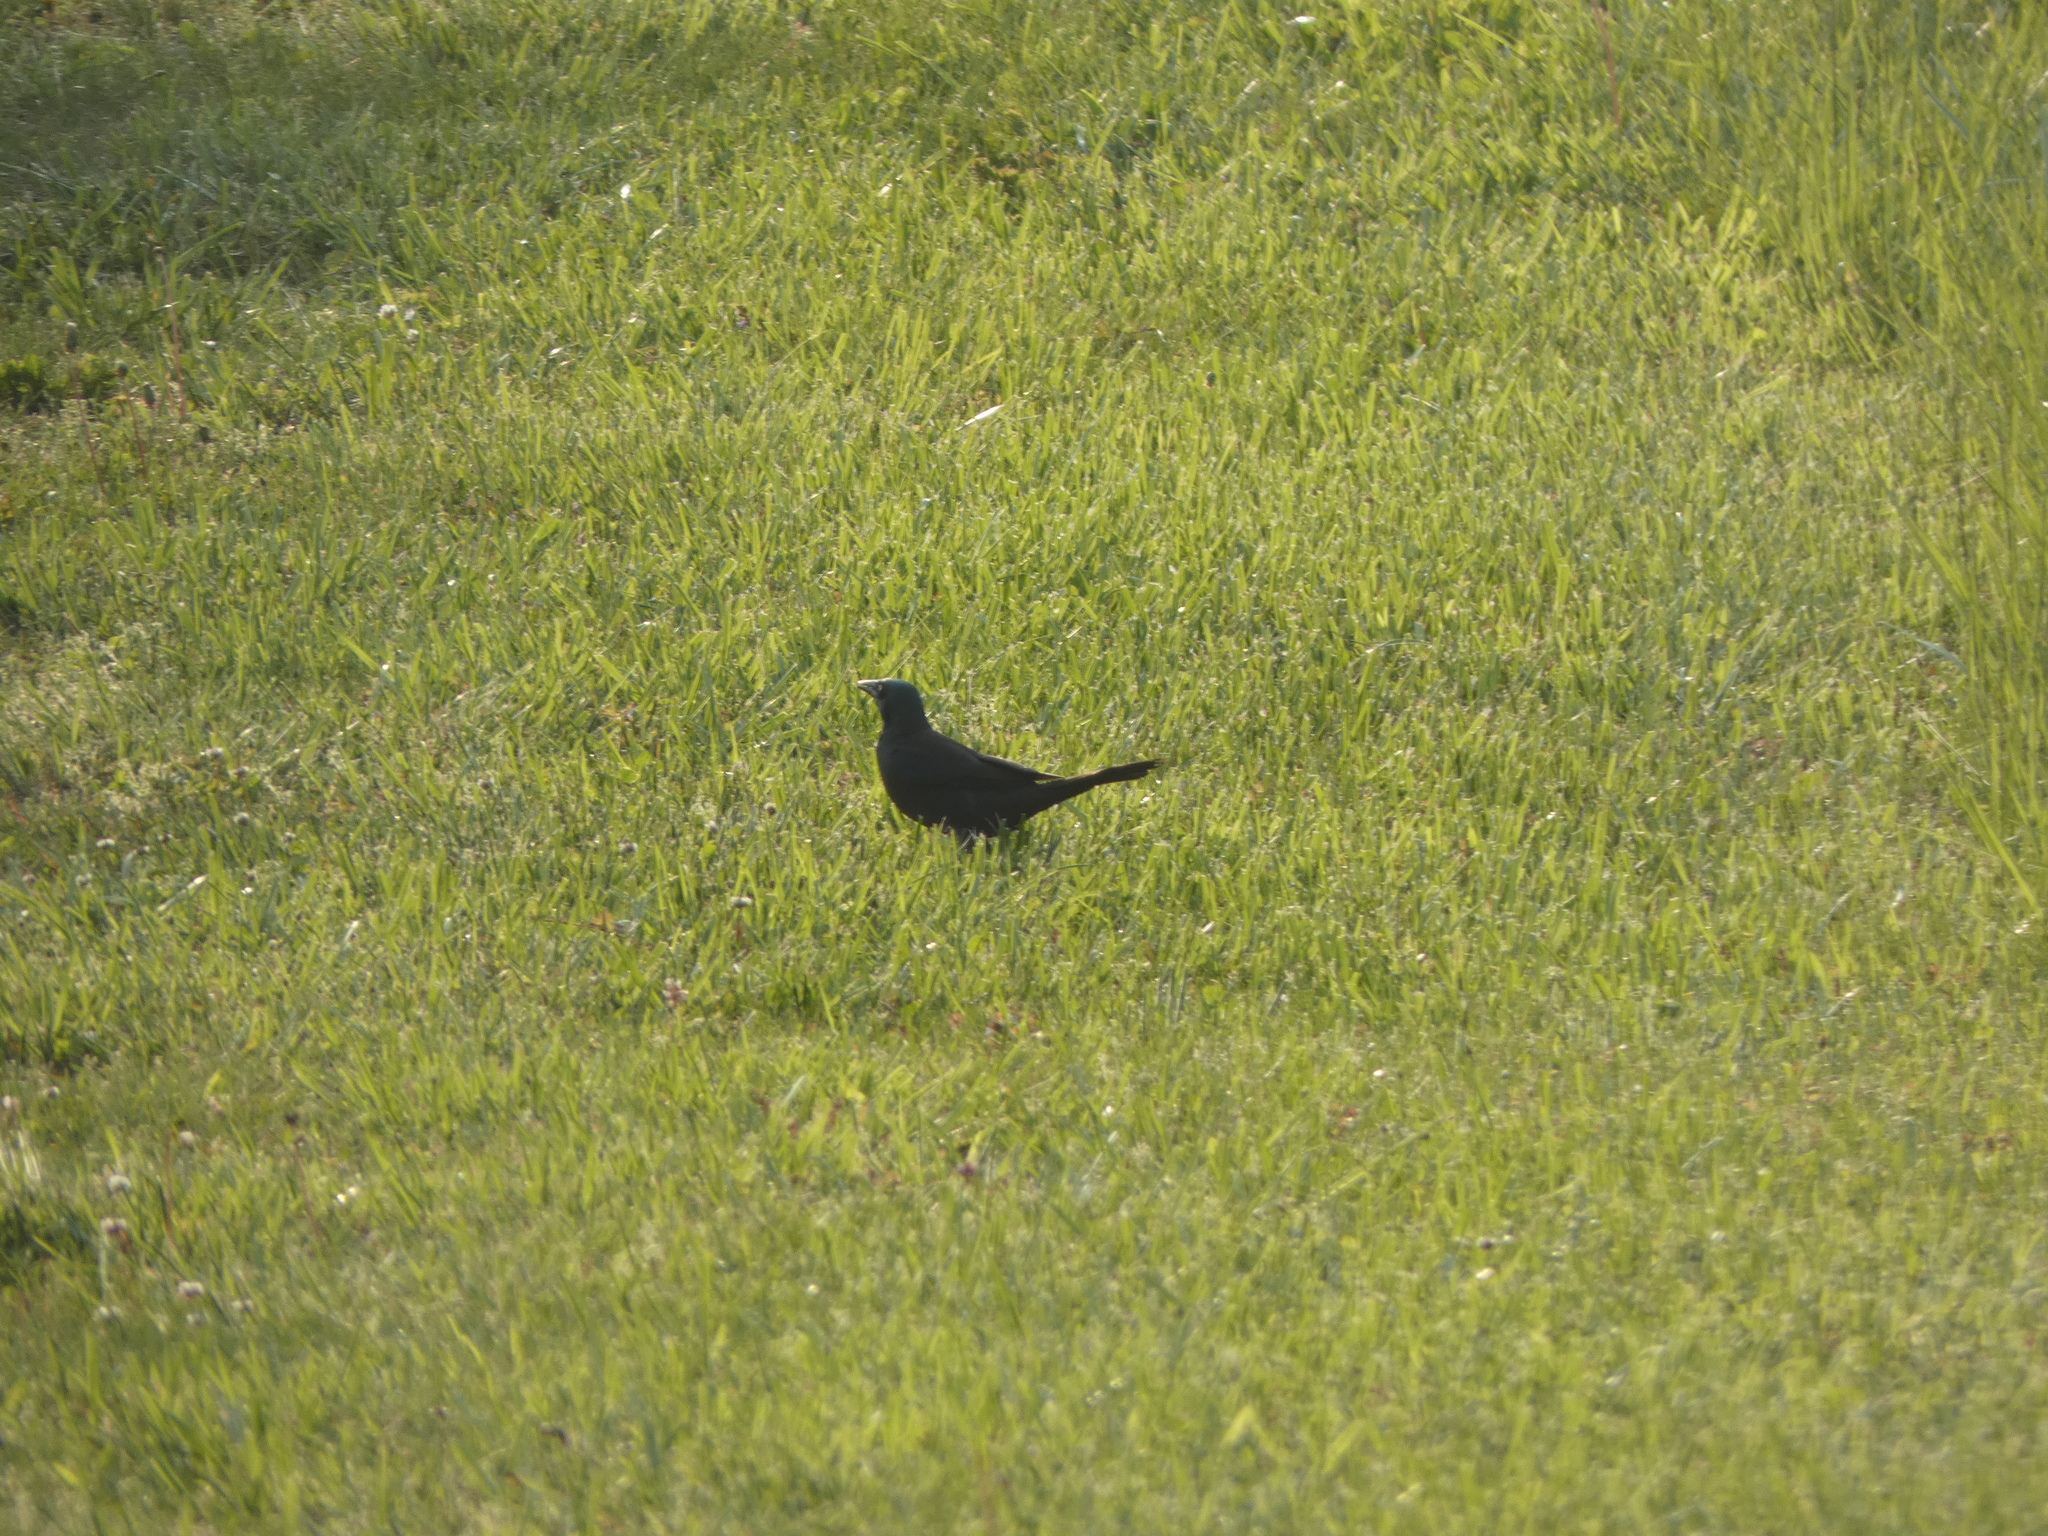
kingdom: Animalia
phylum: Chordata
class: Aves
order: Passeriformes
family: Icteridae
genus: Quiscalus
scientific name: Quiscalus quiscula
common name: Common grackle
